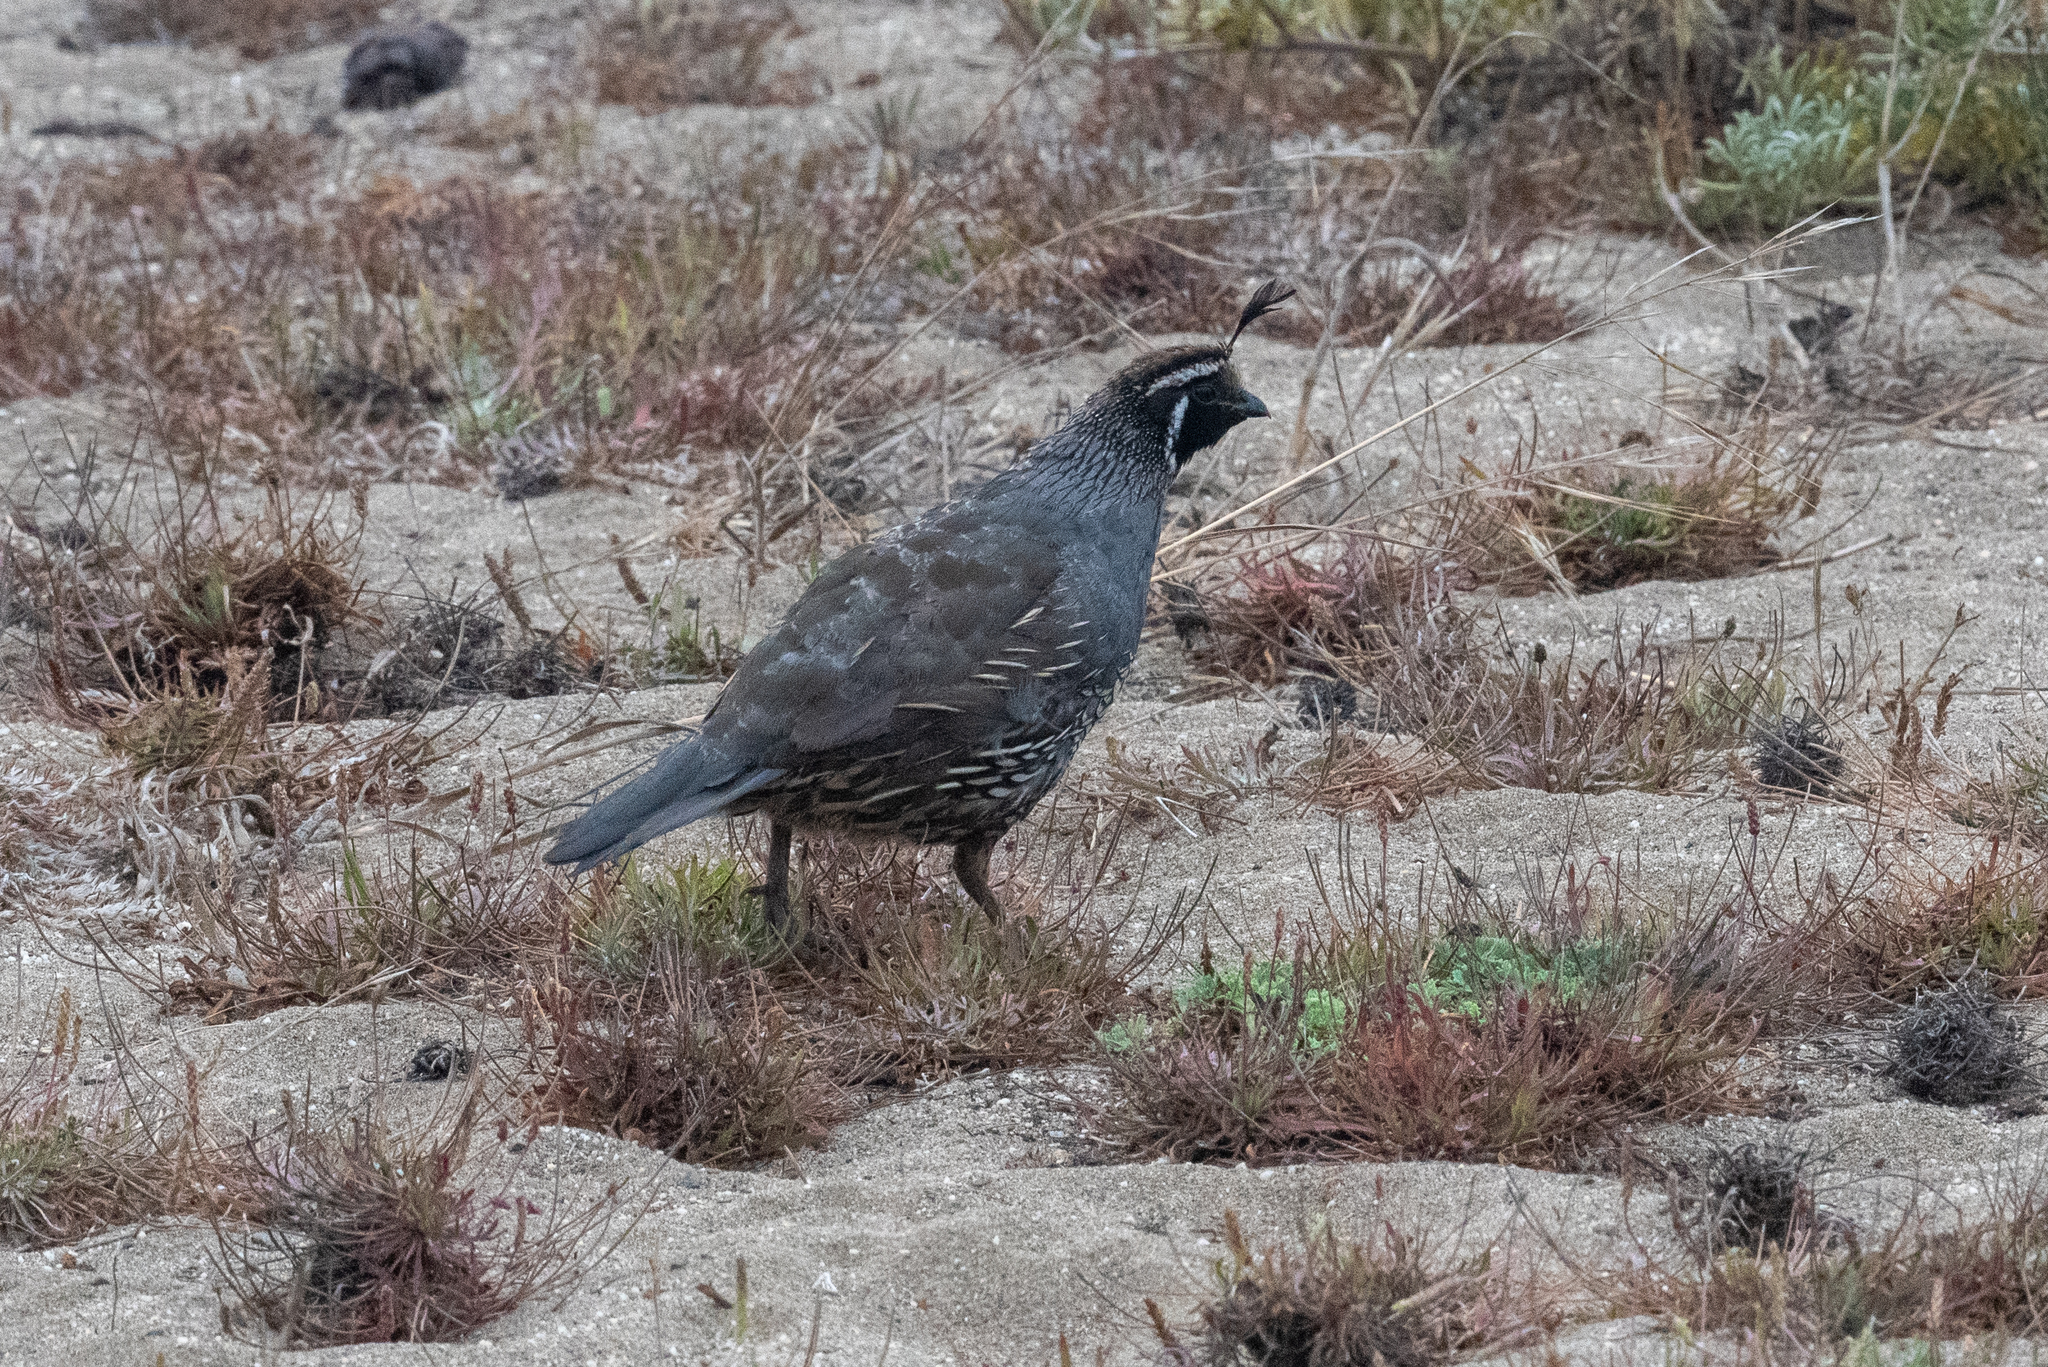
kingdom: Animalia
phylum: Chordata
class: Aves
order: Galliformes
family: Odontophoridae
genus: Callipepla
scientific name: Callipepla californica
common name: California quail
